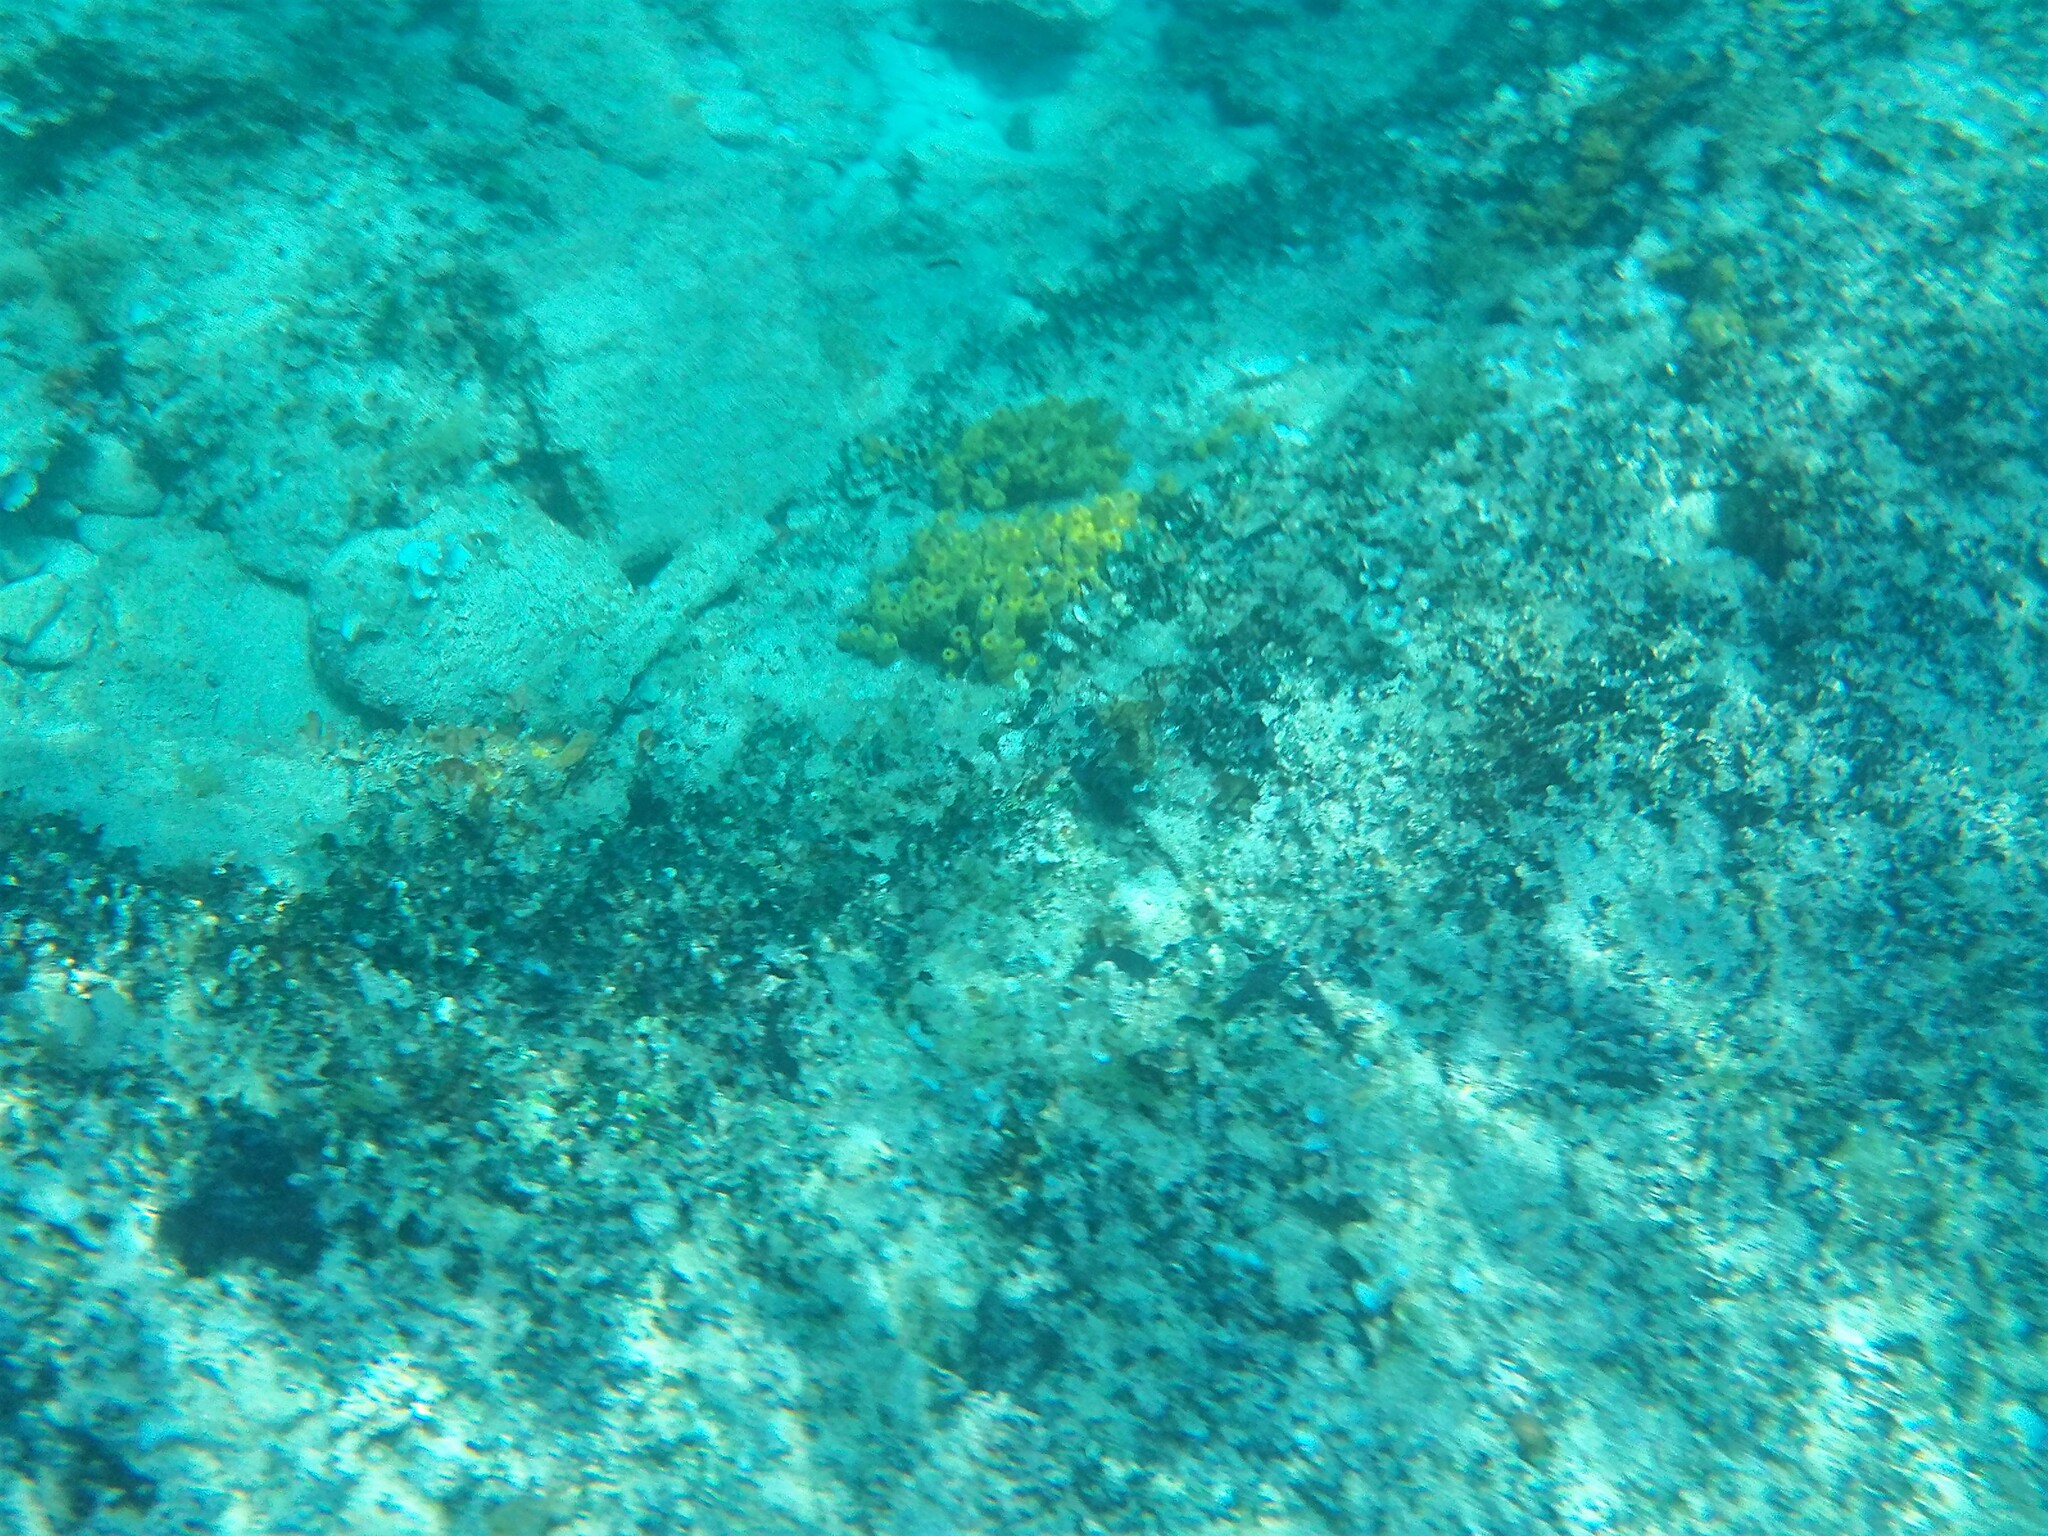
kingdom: Animalia
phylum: Porifera
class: Demospongiae
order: Verongiida
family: Aplysinidae
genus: Aplysina
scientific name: Aplysina aerophoba
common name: Aureate sponge
